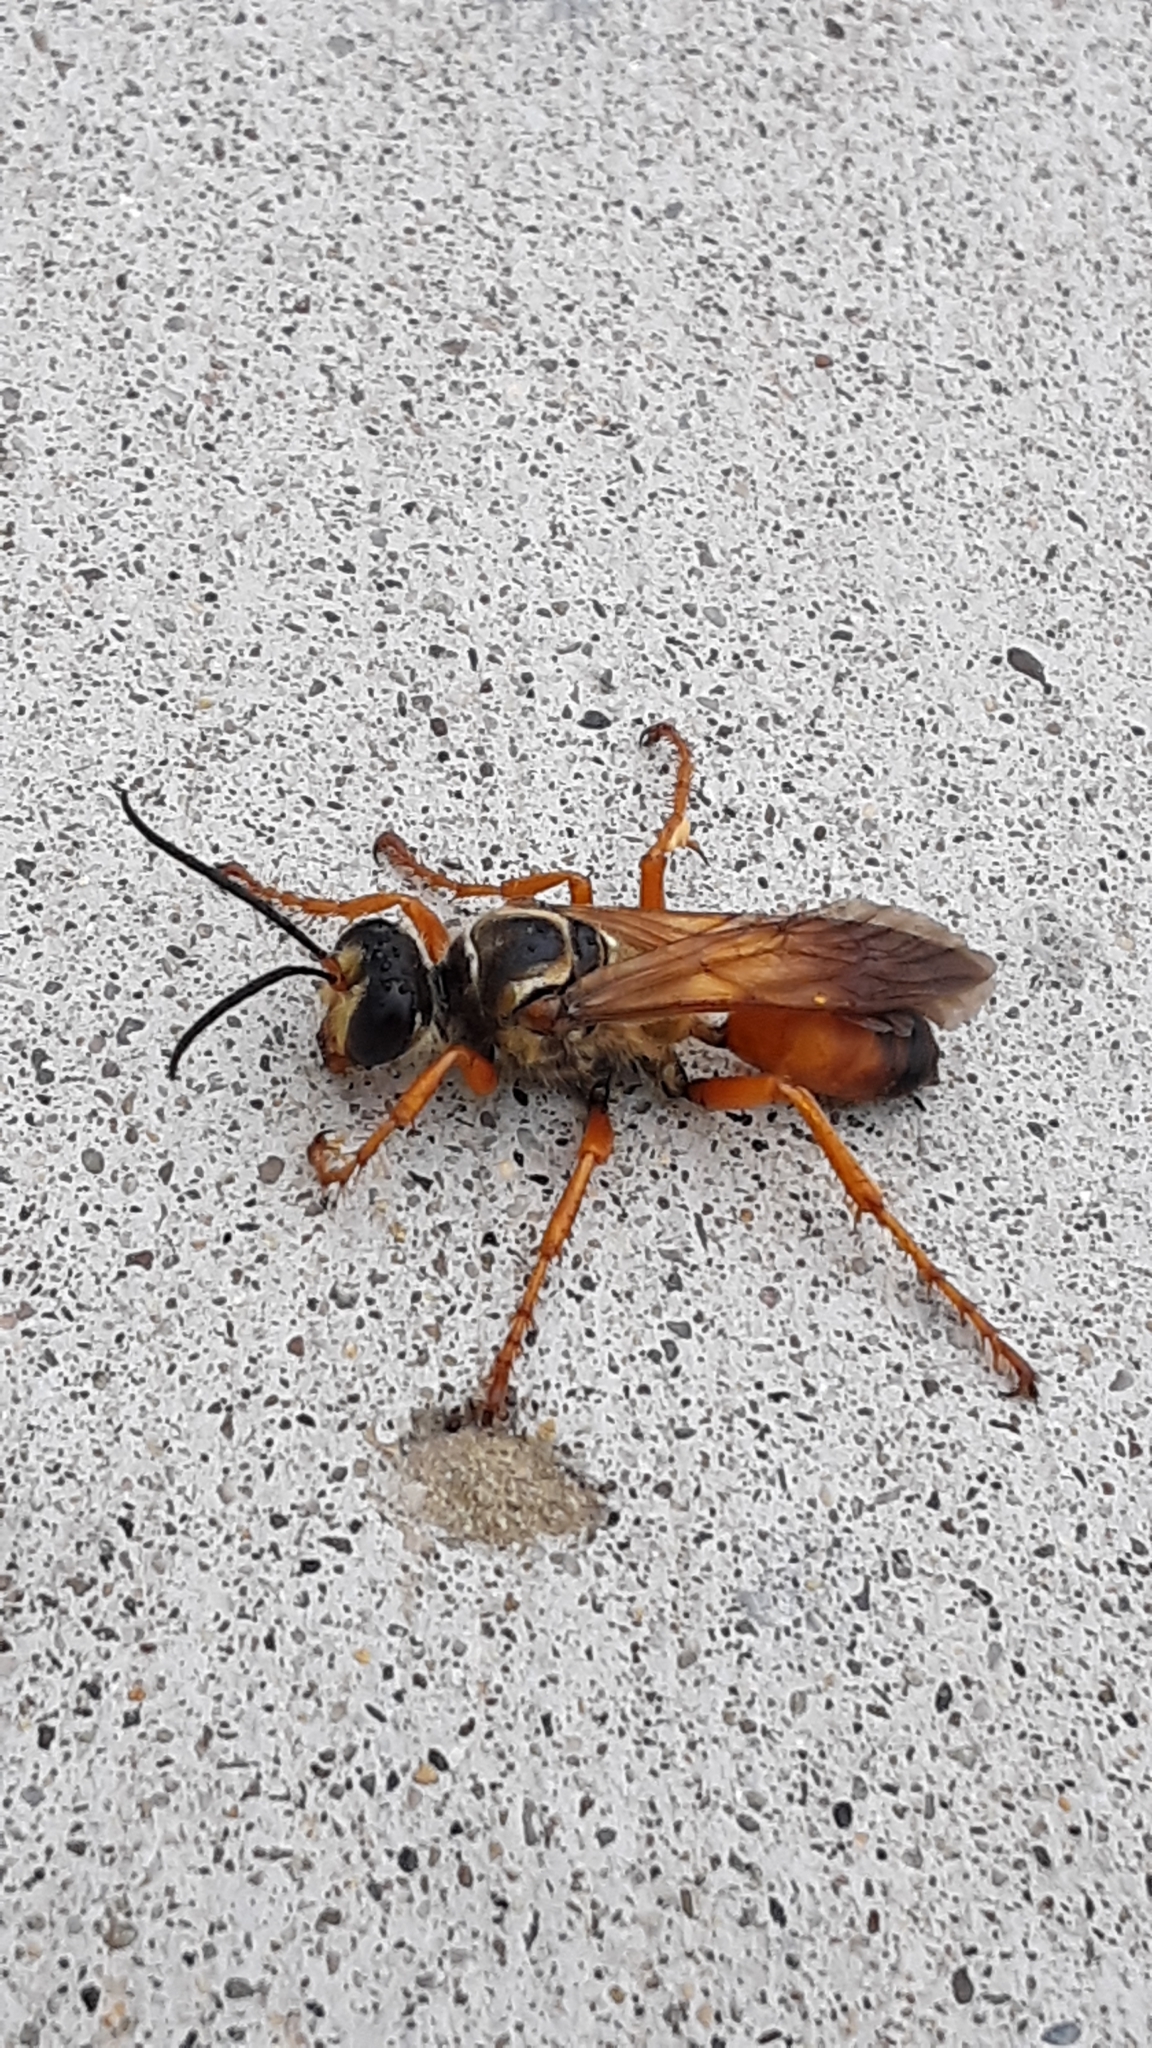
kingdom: Animalia
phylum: Arthropoda
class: Insecta
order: Hymenoptera
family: Sphecidae
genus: Sphex
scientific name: Sphex ichneumoneus
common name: Great golden digger wasp
